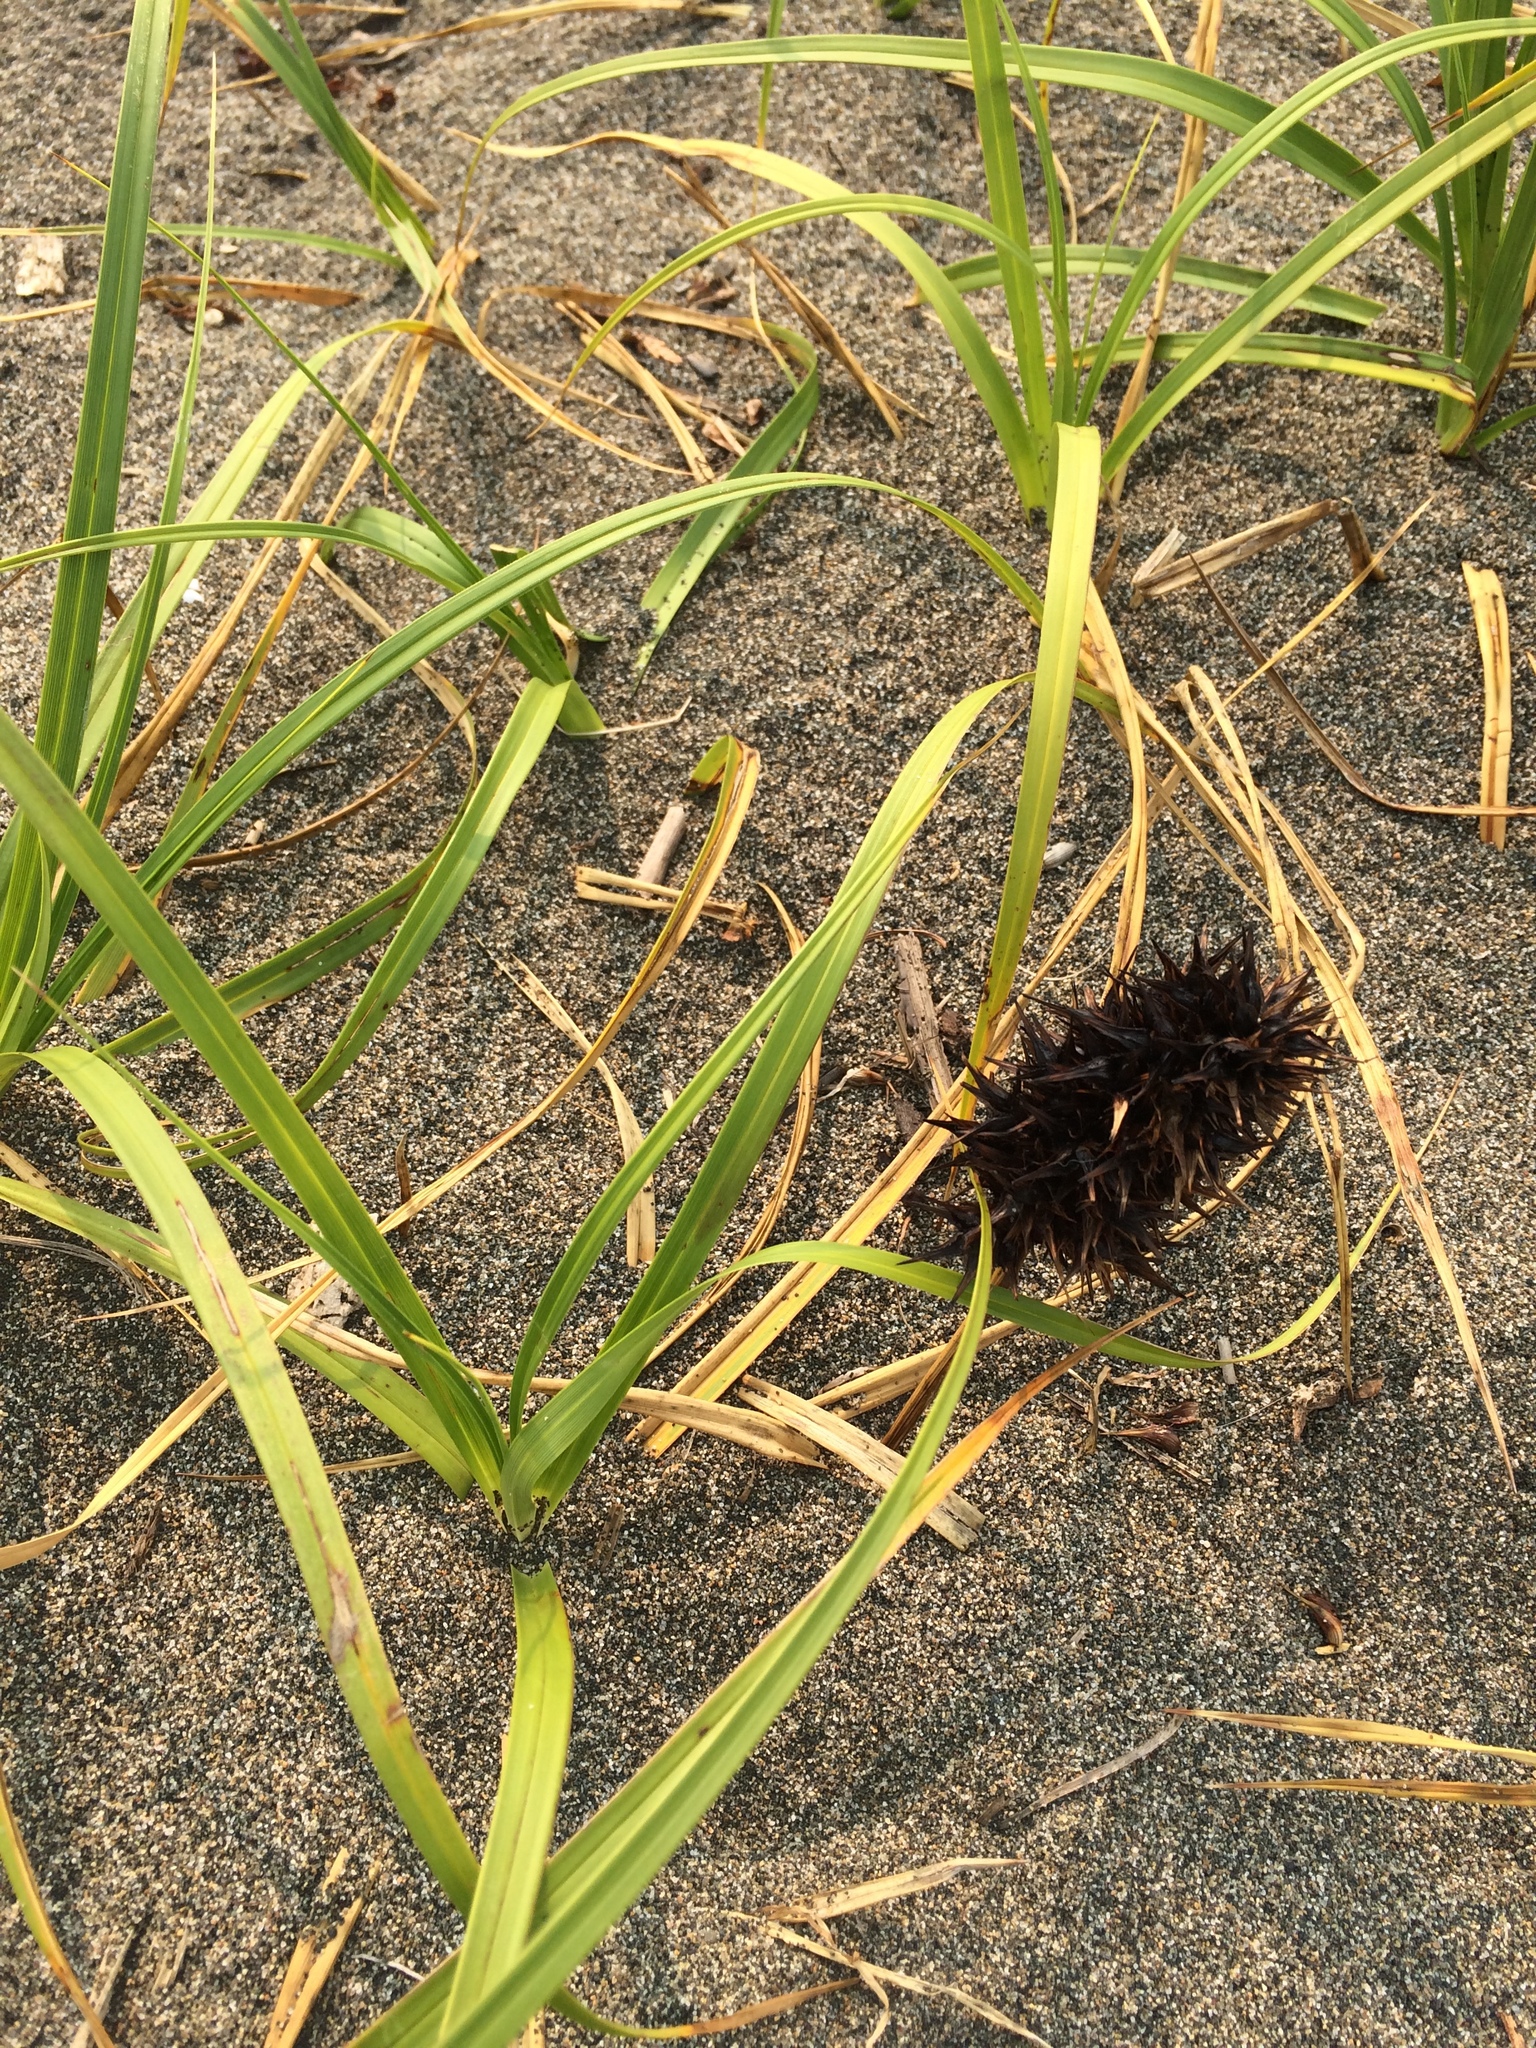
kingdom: Plantae
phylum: Tracheophyta
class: Liliopsida
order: Poales
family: Cyperaceae
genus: Carex
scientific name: Carex macrocephala
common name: Large-head sedge
